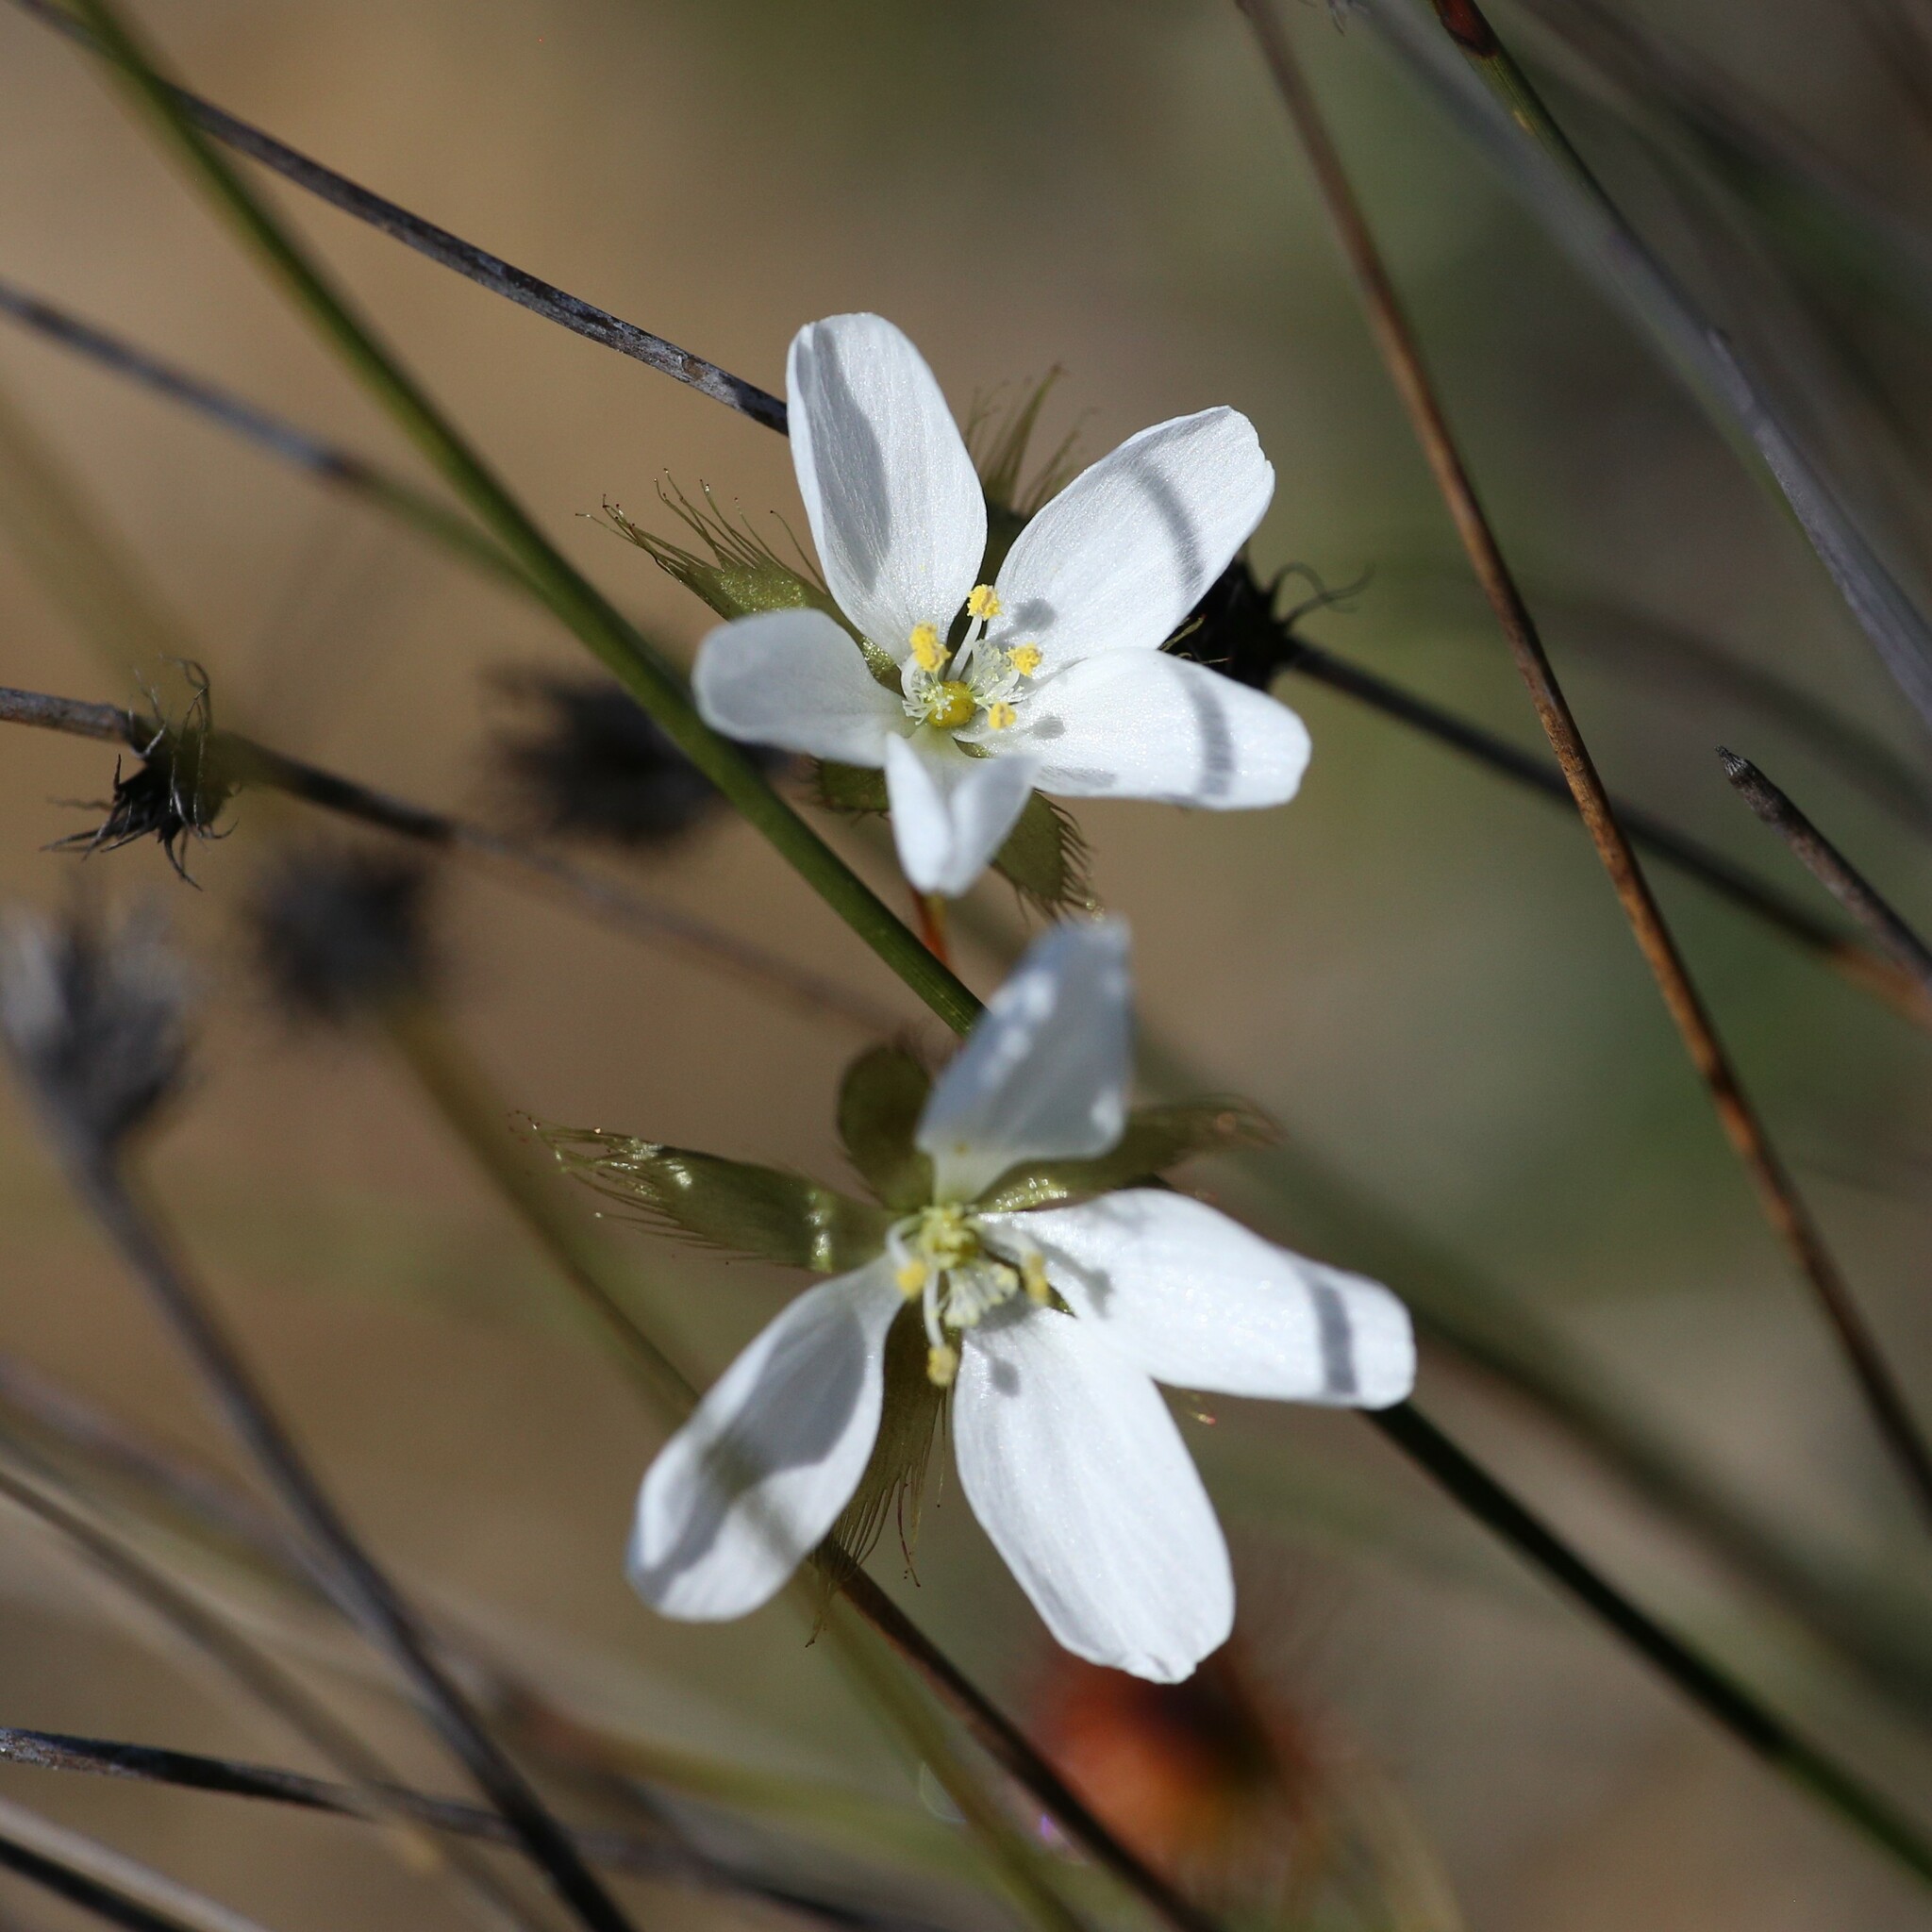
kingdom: Plantae
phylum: Tracheophyta
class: Magnoliopsida
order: Caryophyllales
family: Droseraceae
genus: Drosera
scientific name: Drosera huegelii
